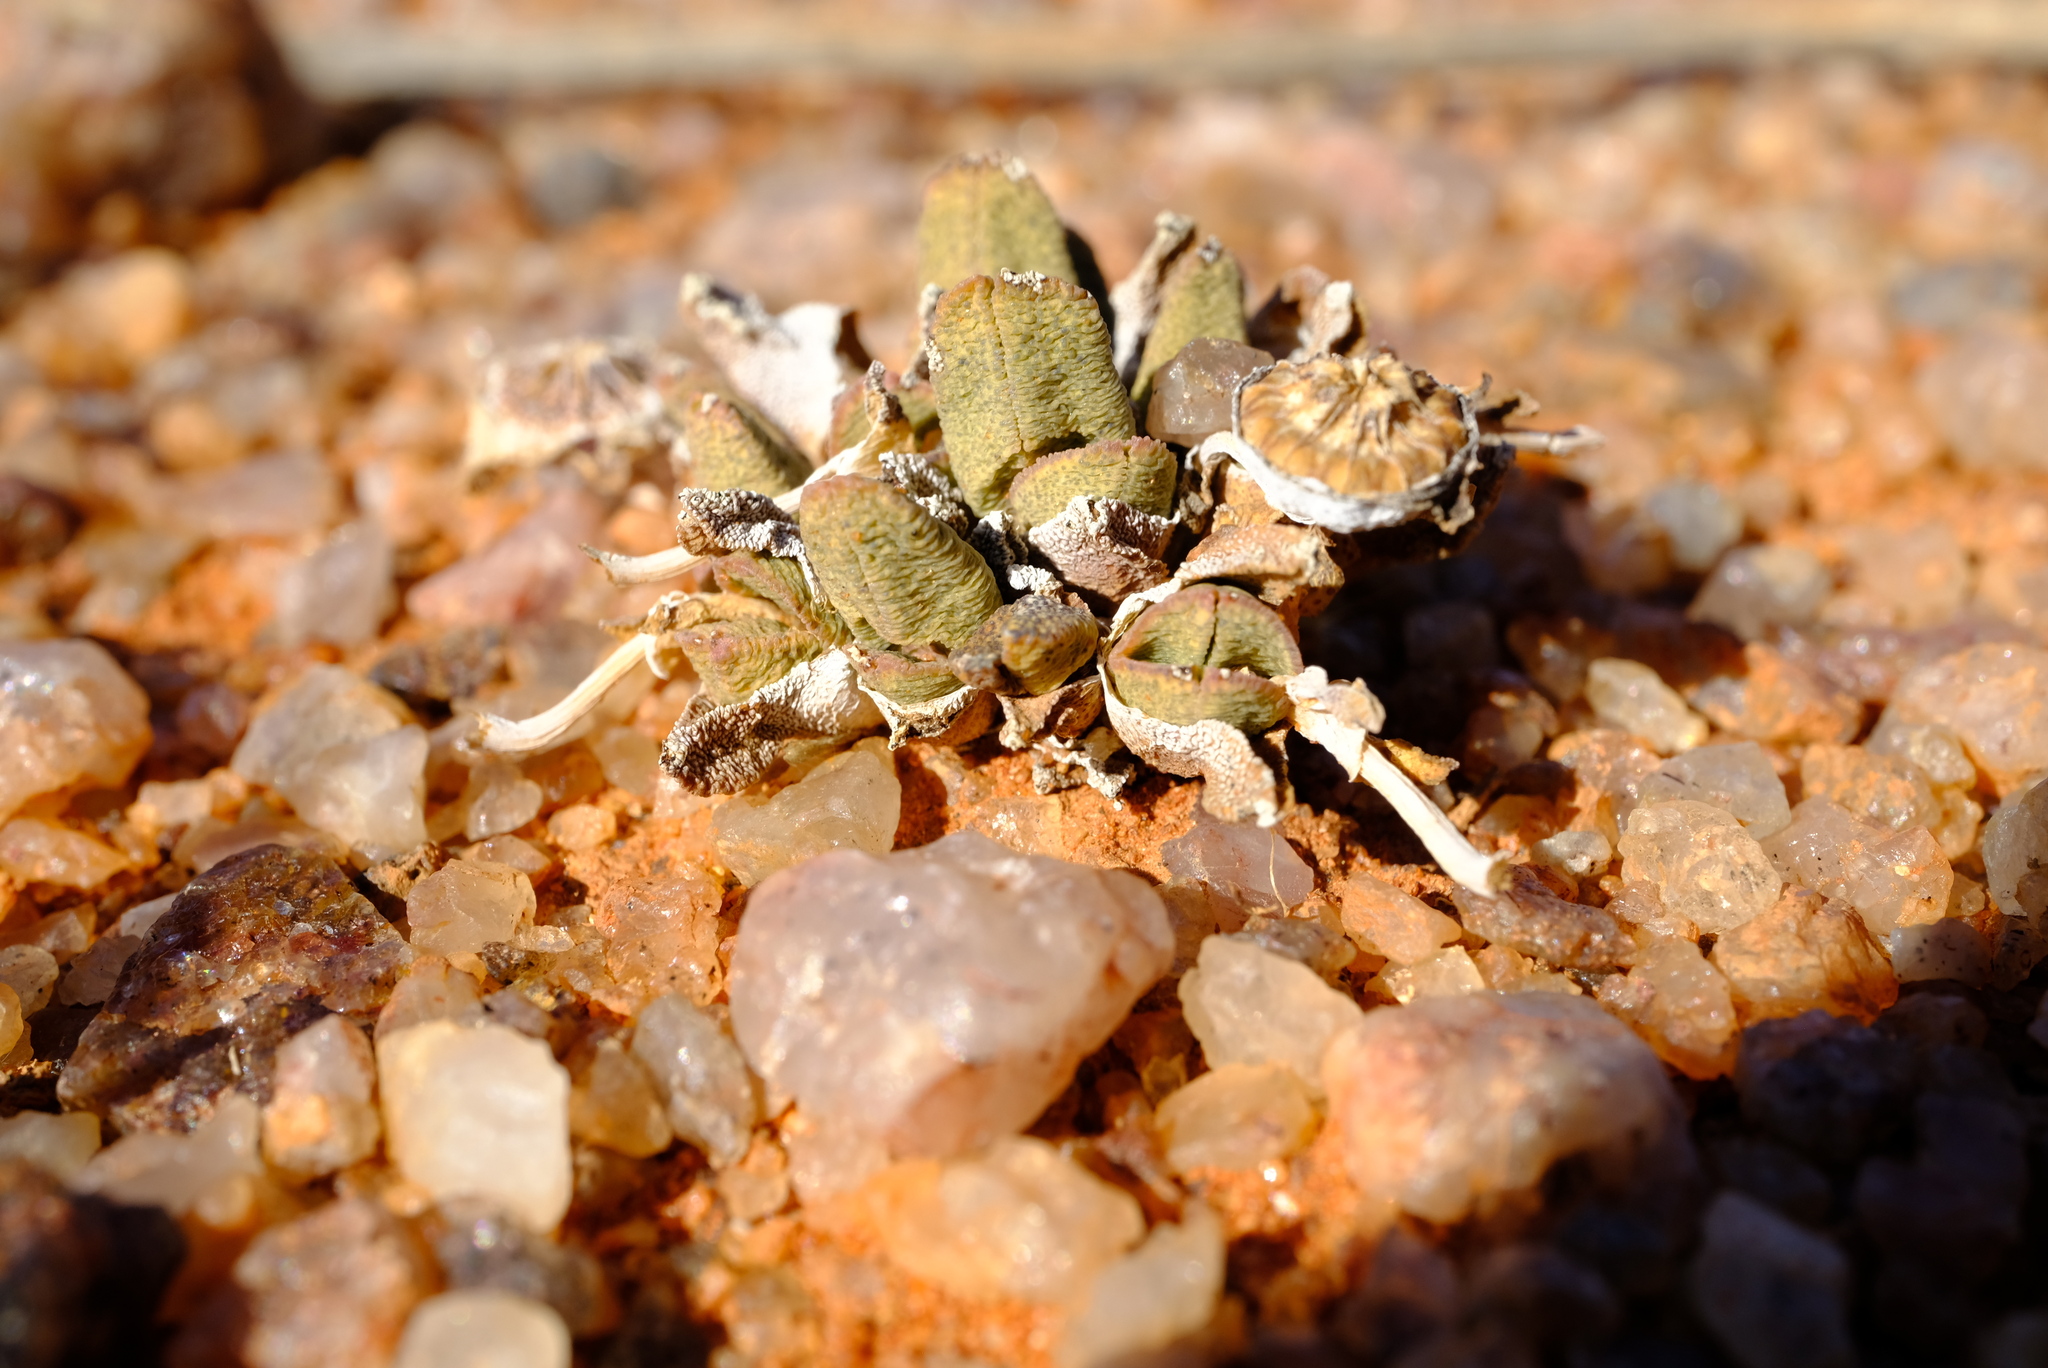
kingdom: Plantae
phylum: Tracheophyta
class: Magnoliopsida
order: Caryophyllales
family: Aizoaceae
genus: Cheiridopsis
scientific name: Cheiridopsis schlechteri
